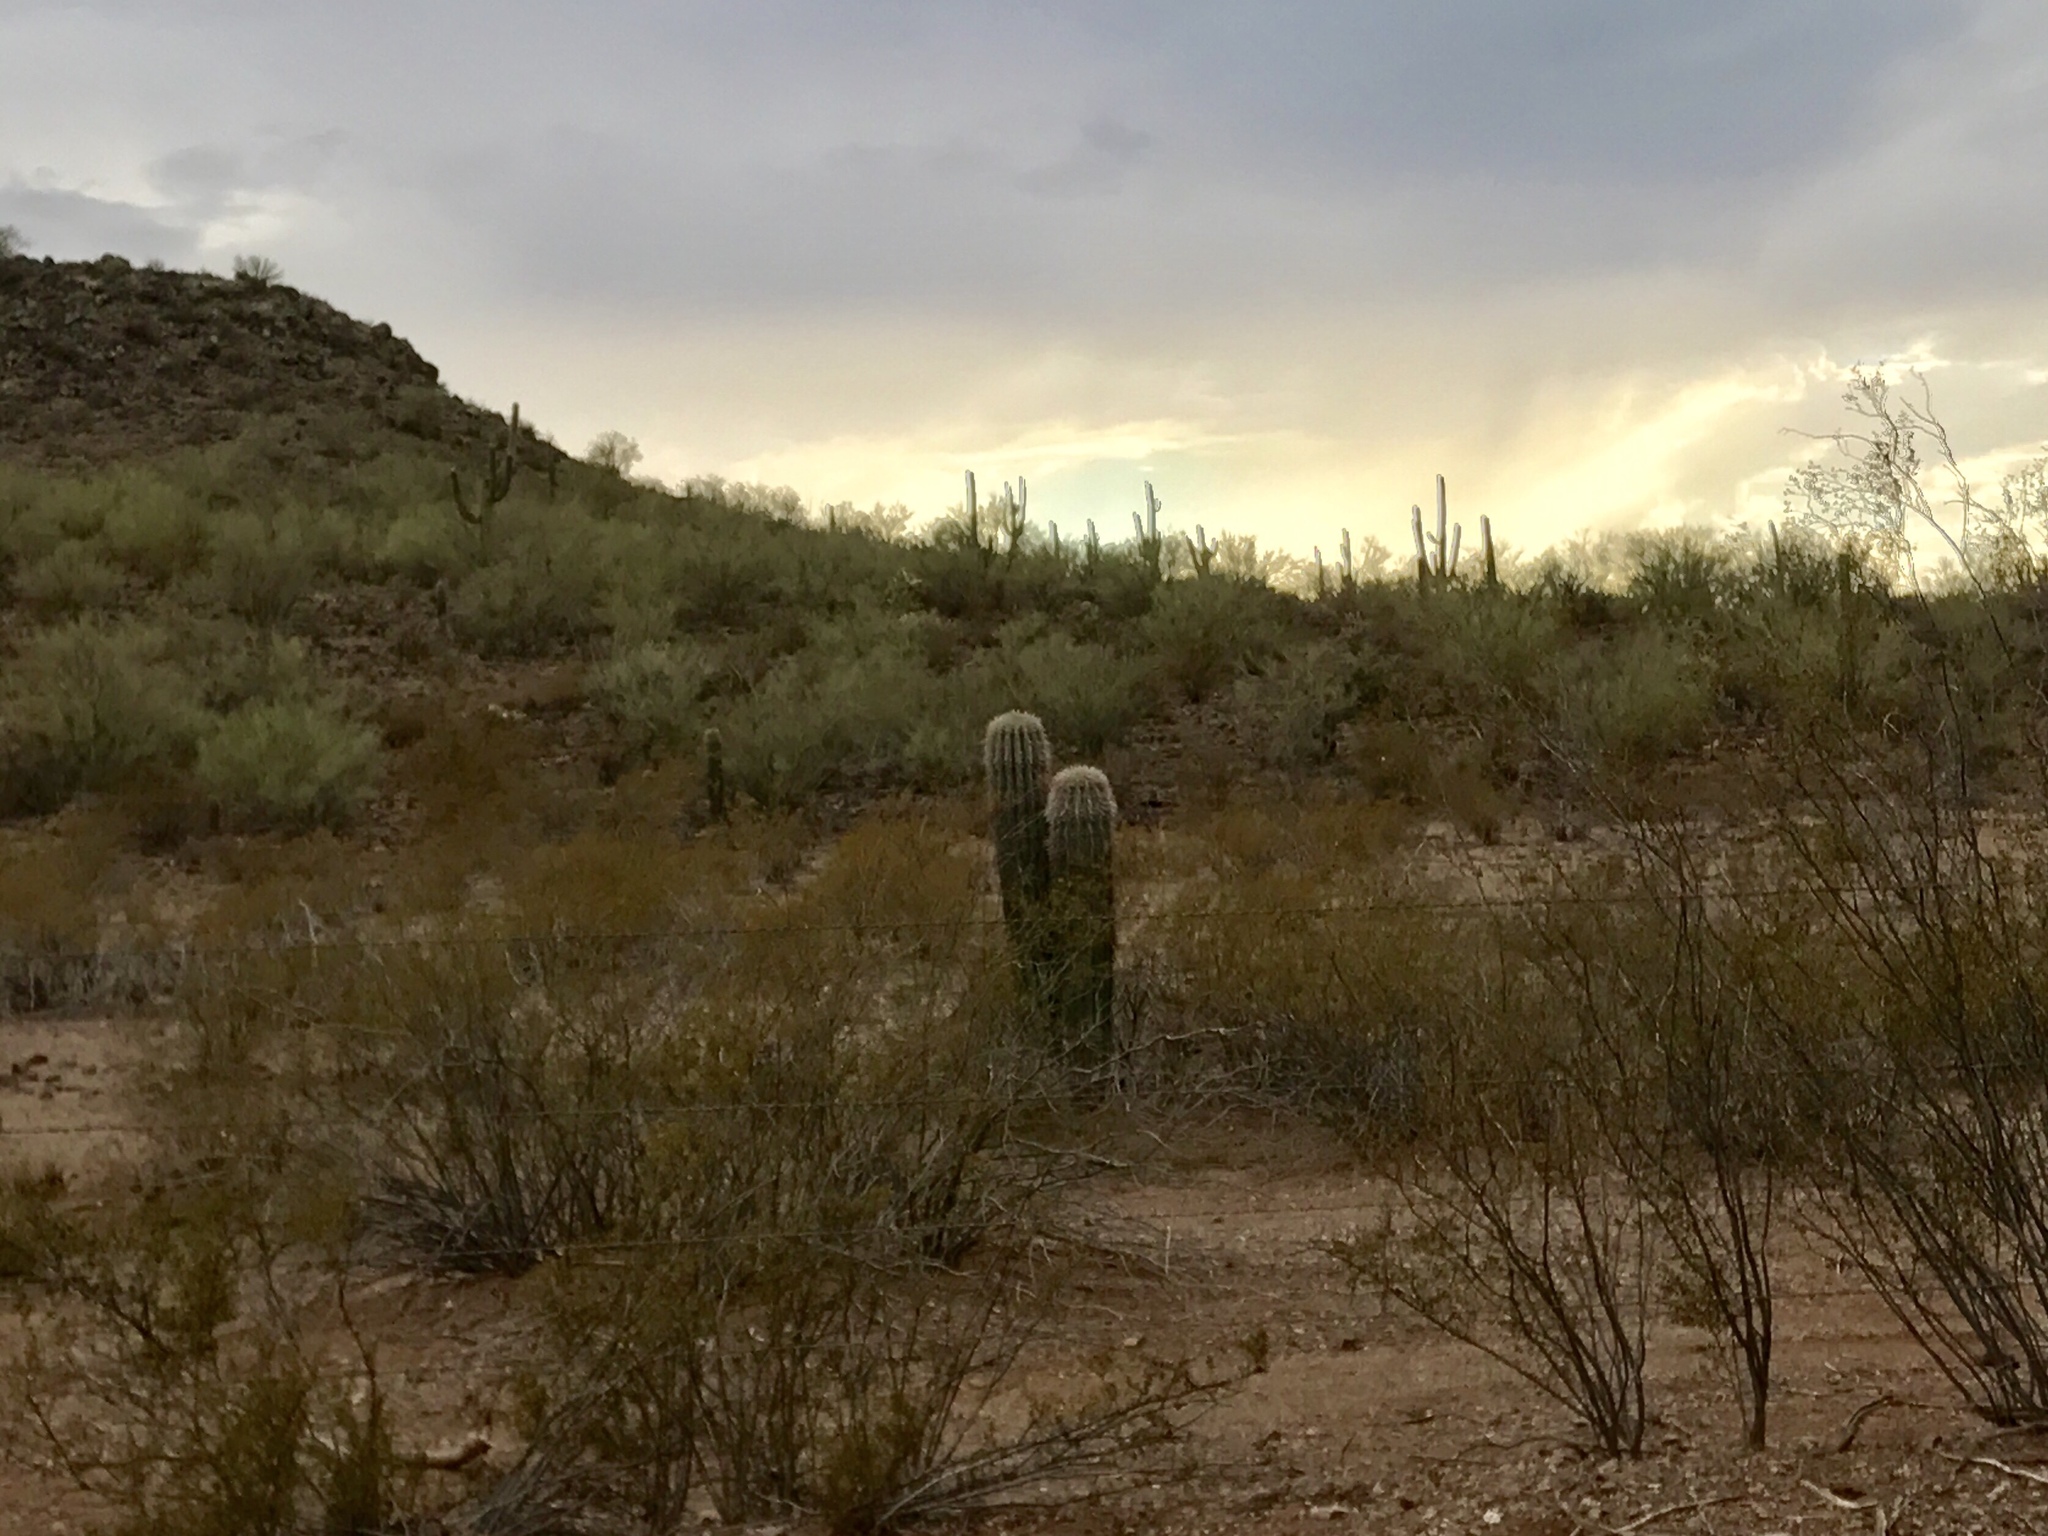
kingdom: Plantae
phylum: Tracheophyta
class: Magnoliopsida
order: Caryophyllales
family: Cactaceae
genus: Carnegiea
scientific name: Carnegiea gigantea
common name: Saguaro
